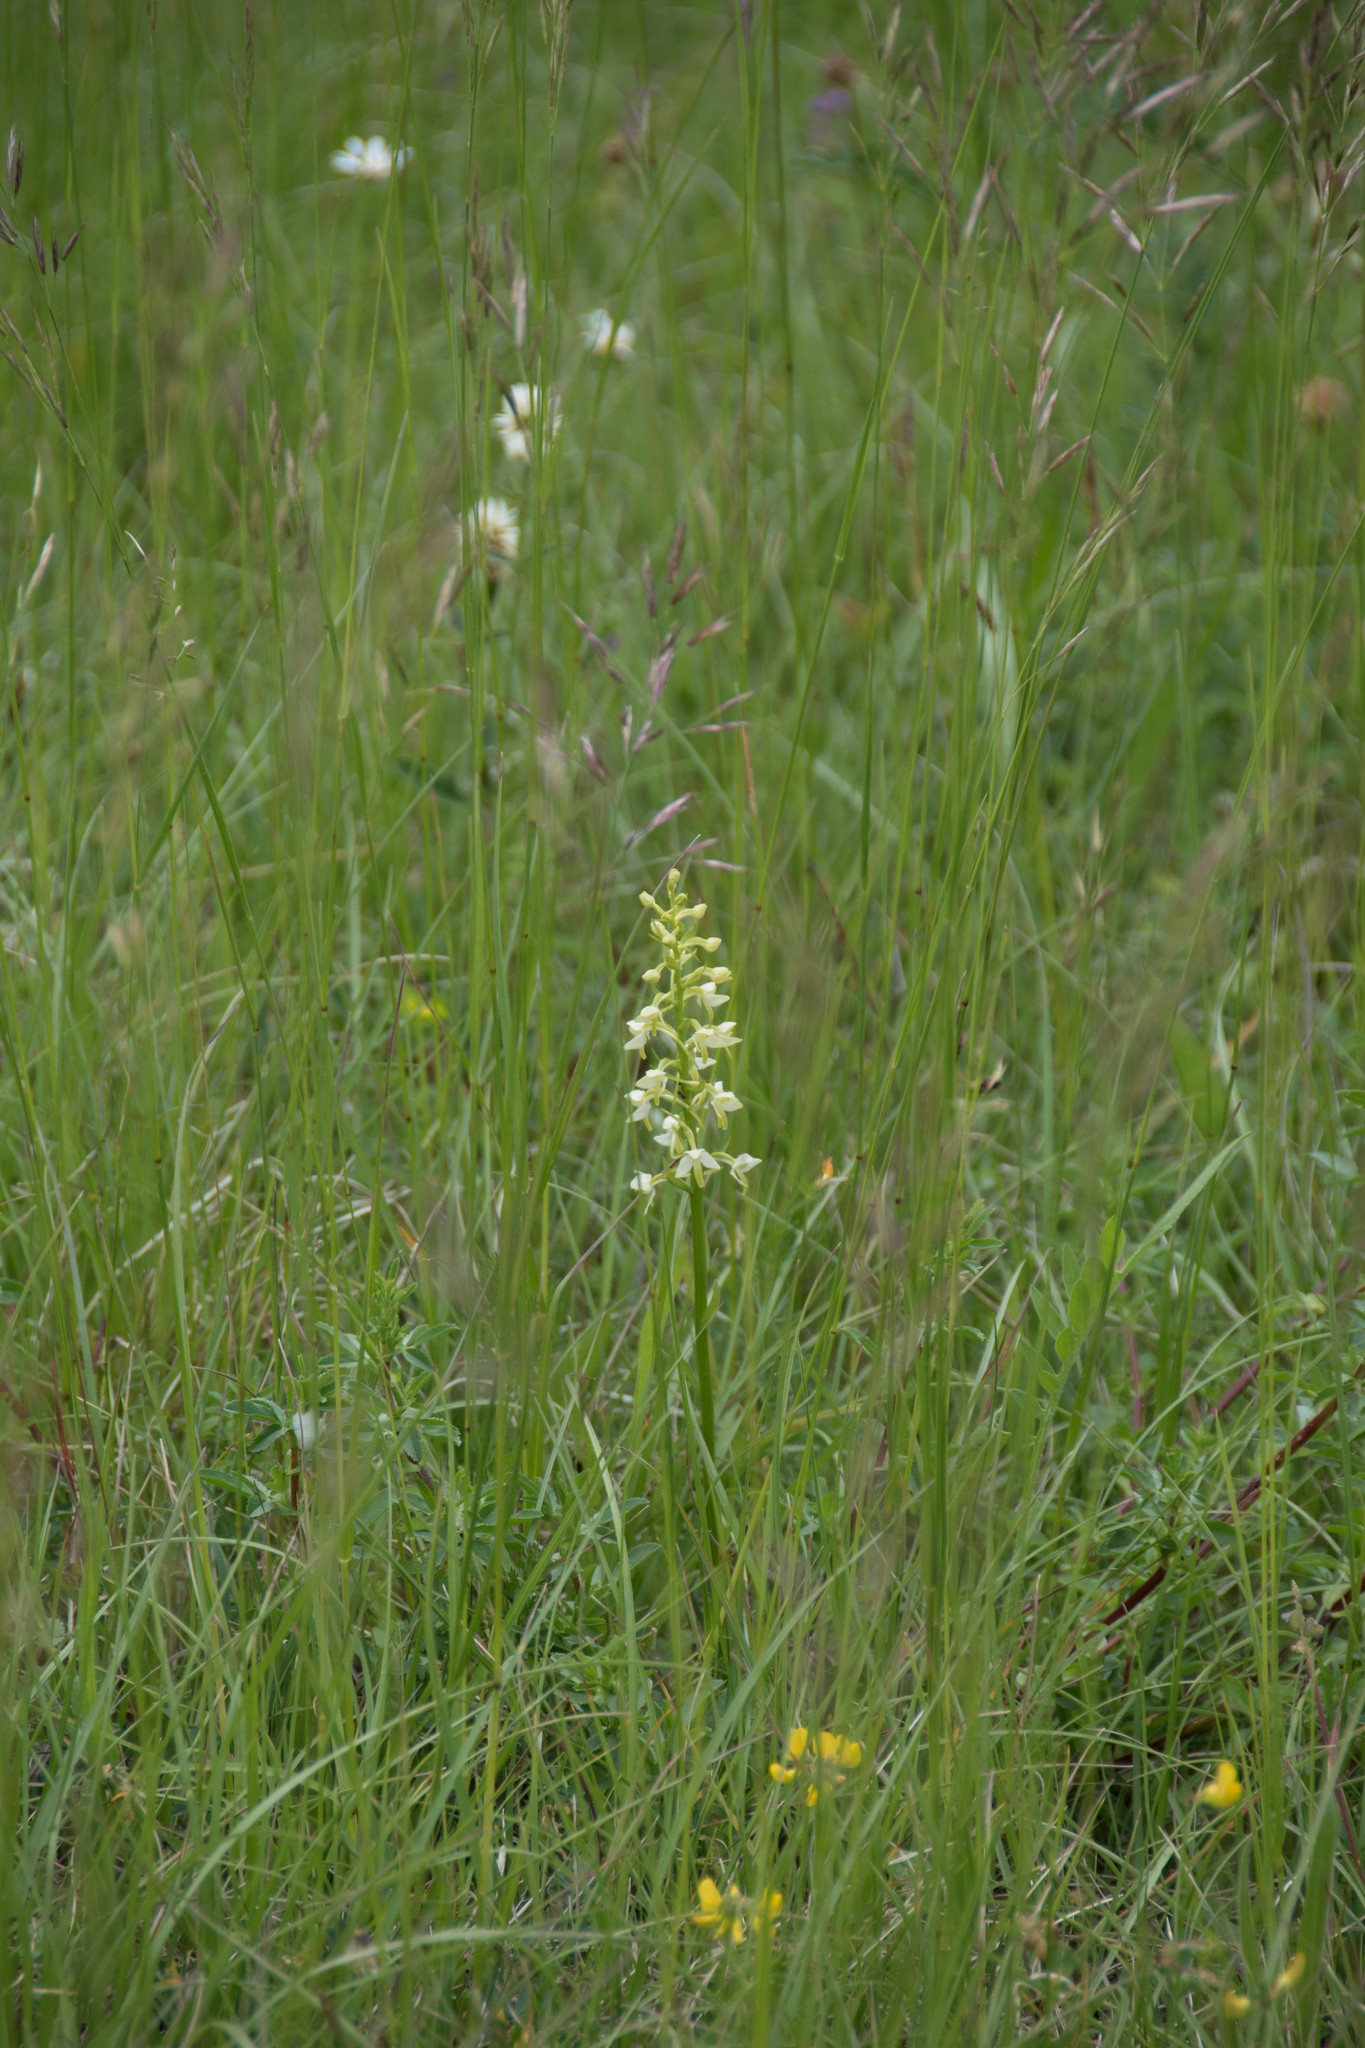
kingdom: Plantae
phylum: Tracheophyta
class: Liliopsida
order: Asparagales
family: Orchidaceae
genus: Platanthera
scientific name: Platanthera bifolia
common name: Lesser butterfly-orchid
